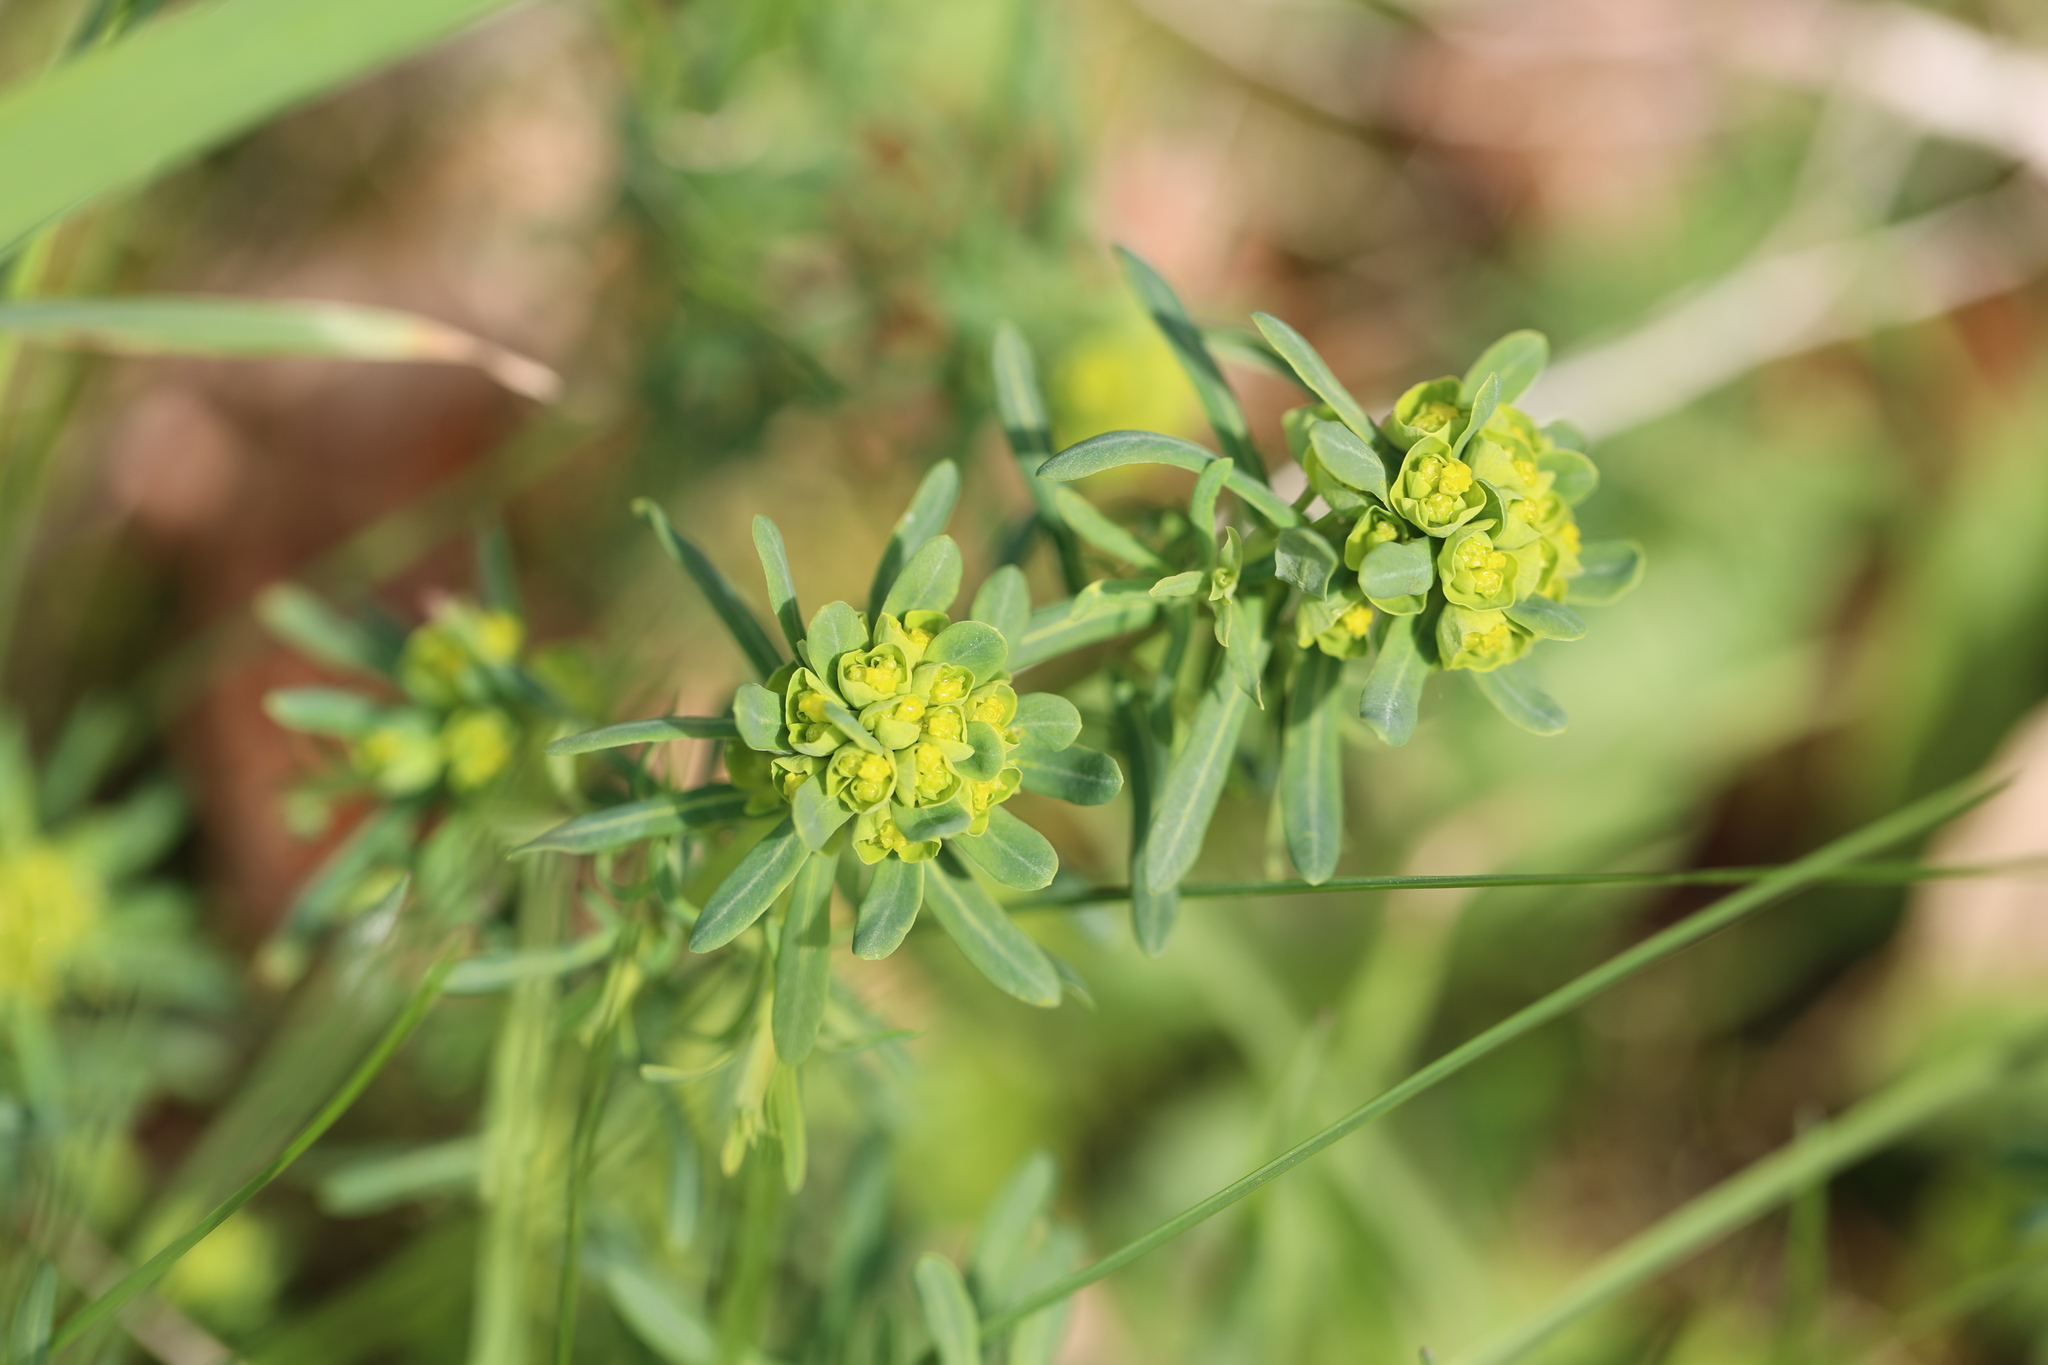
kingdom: Plantae
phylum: Tracheophyta
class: Magnoliopsida
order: Malpighiales
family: Euphorbiaceae
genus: Euphorbia
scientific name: Euphorbia cyparissias
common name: Cypress spurge
